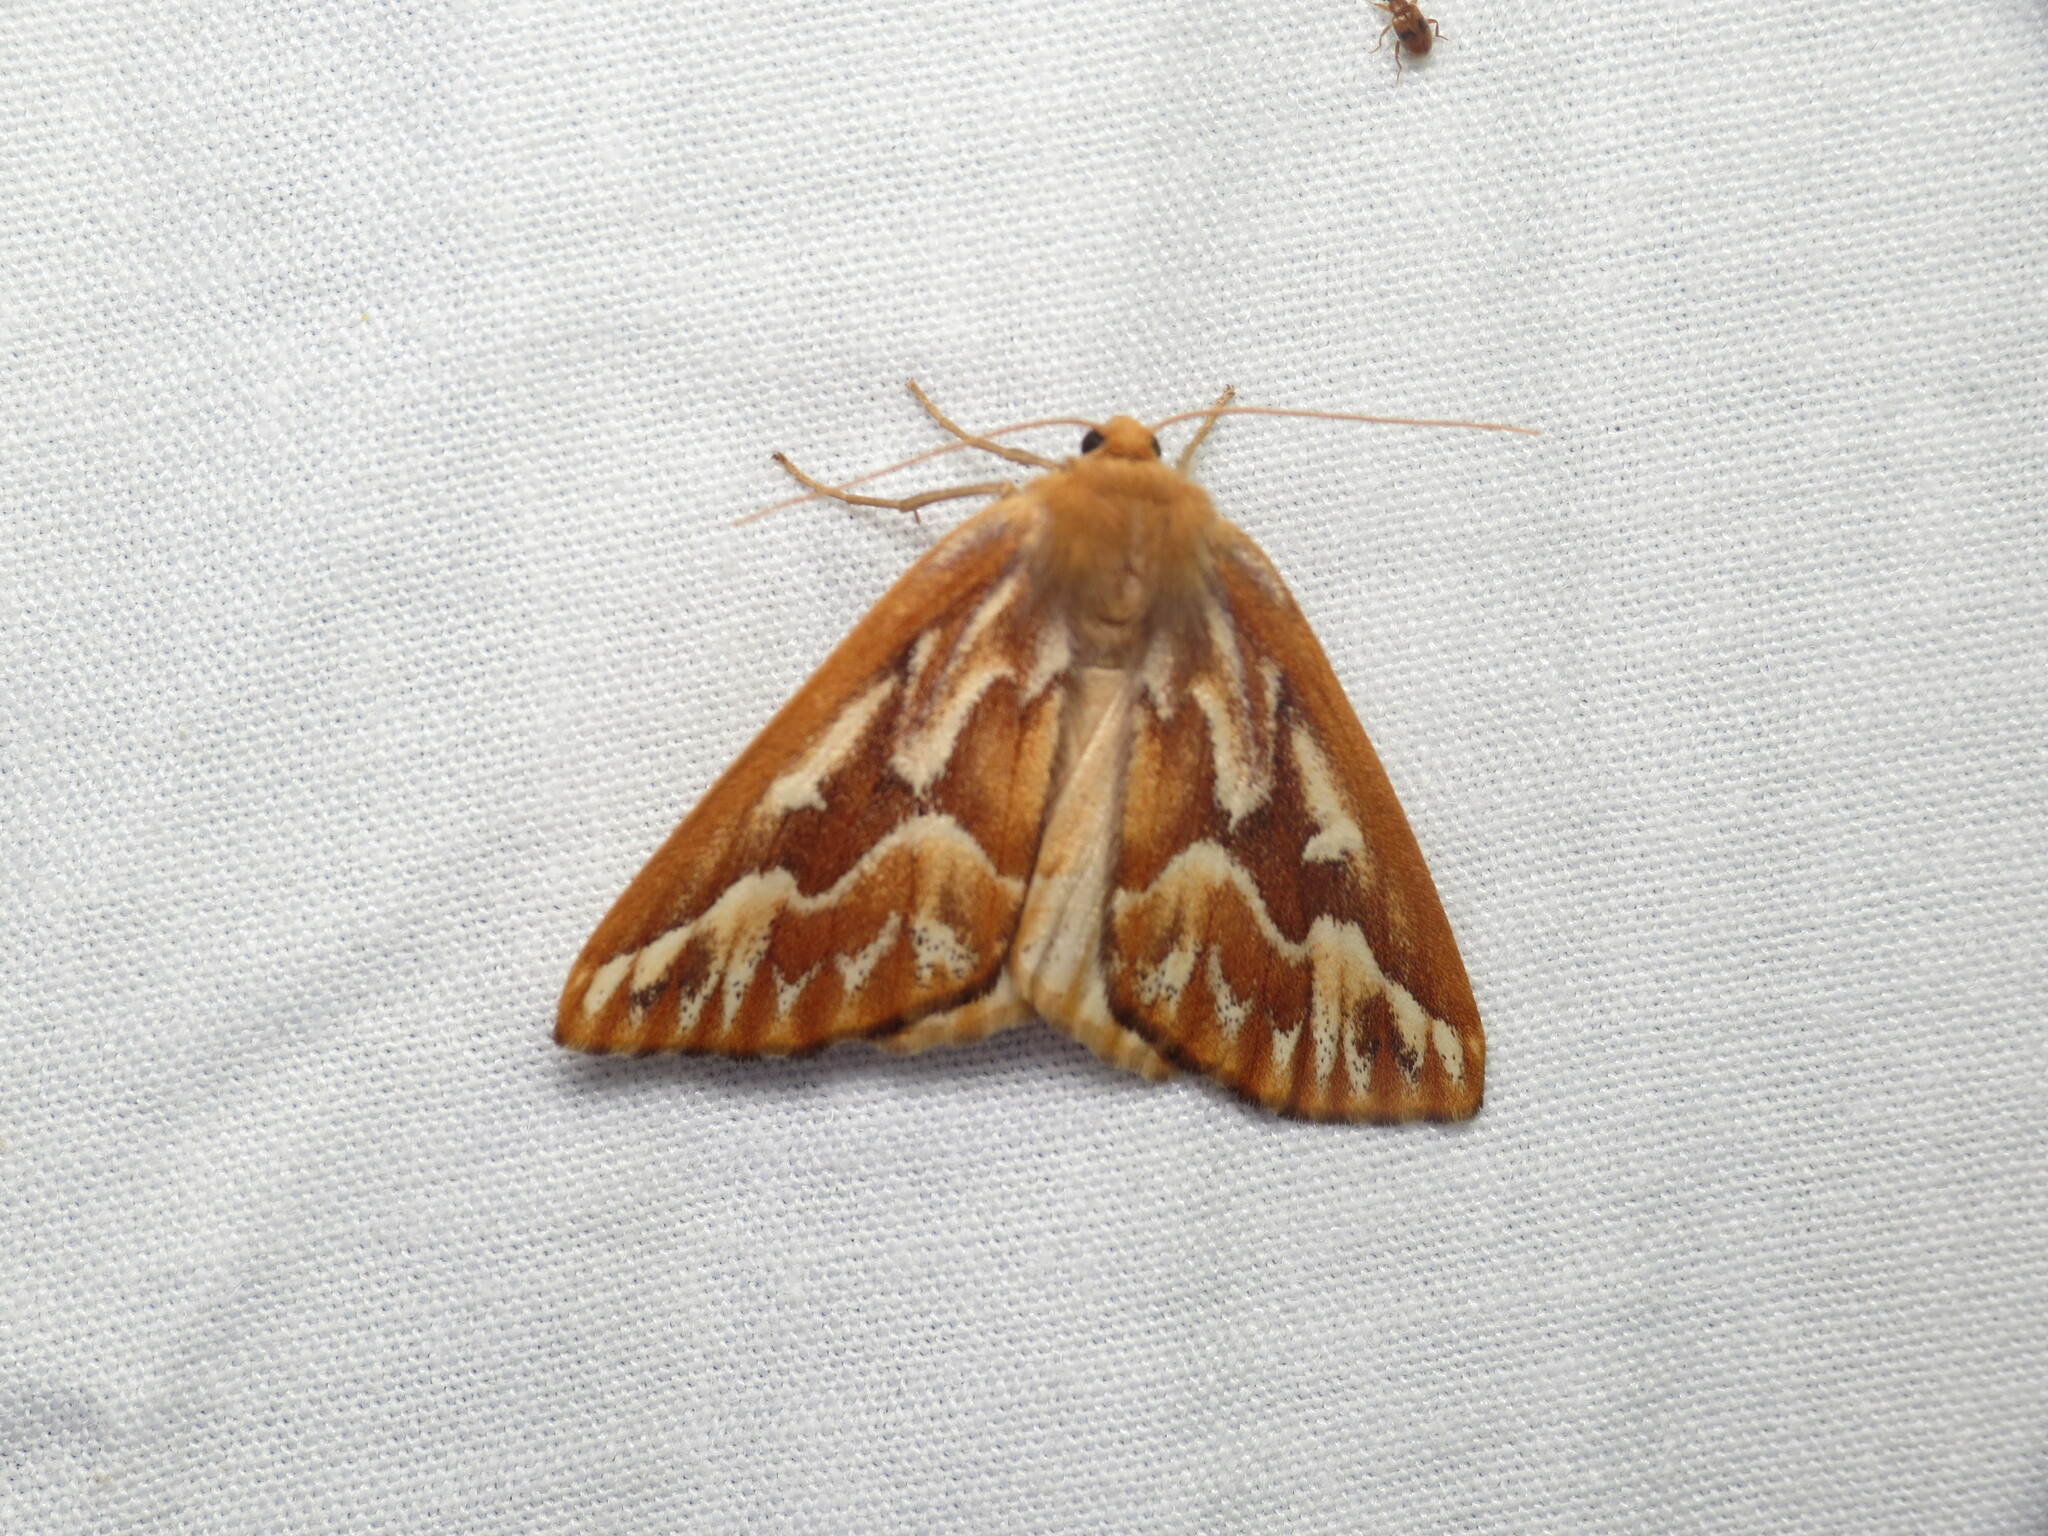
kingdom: Animalia
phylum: Arthropoda
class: Insecta
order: Lepidoptera
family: Geometridae
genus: Caripeta
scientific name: Caripeta piniata
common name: Northern pine looper moth
